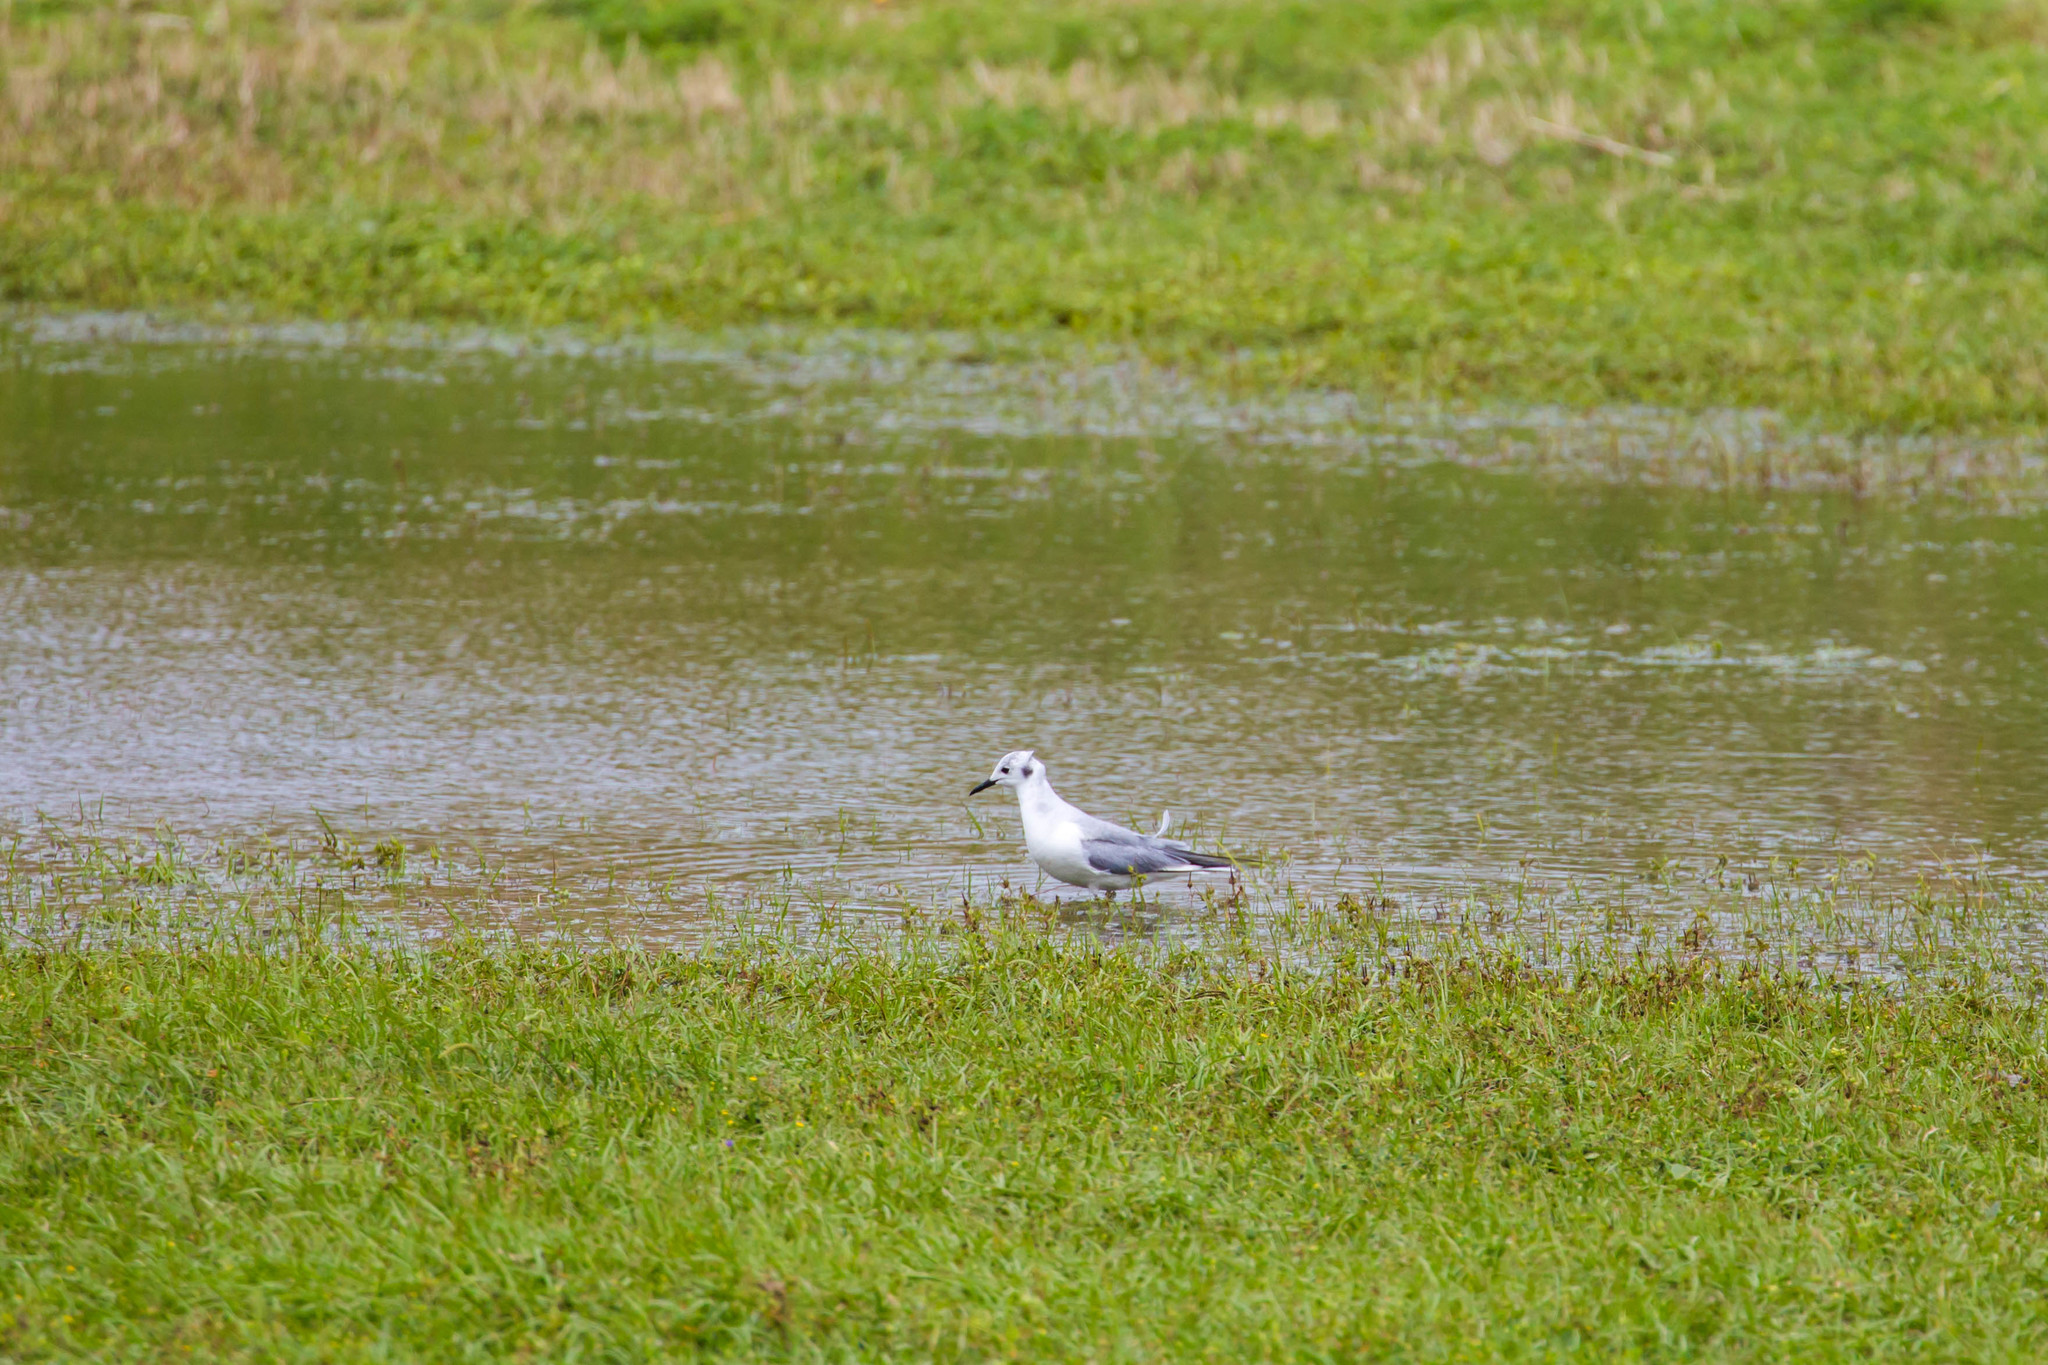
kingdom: Animalia
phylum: Chordata
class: Aves
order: Charadriiformes
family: Laridae
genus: Chroicocephalus
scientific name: Chroicocephalus philadelphia
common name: Bonaparte's gull
